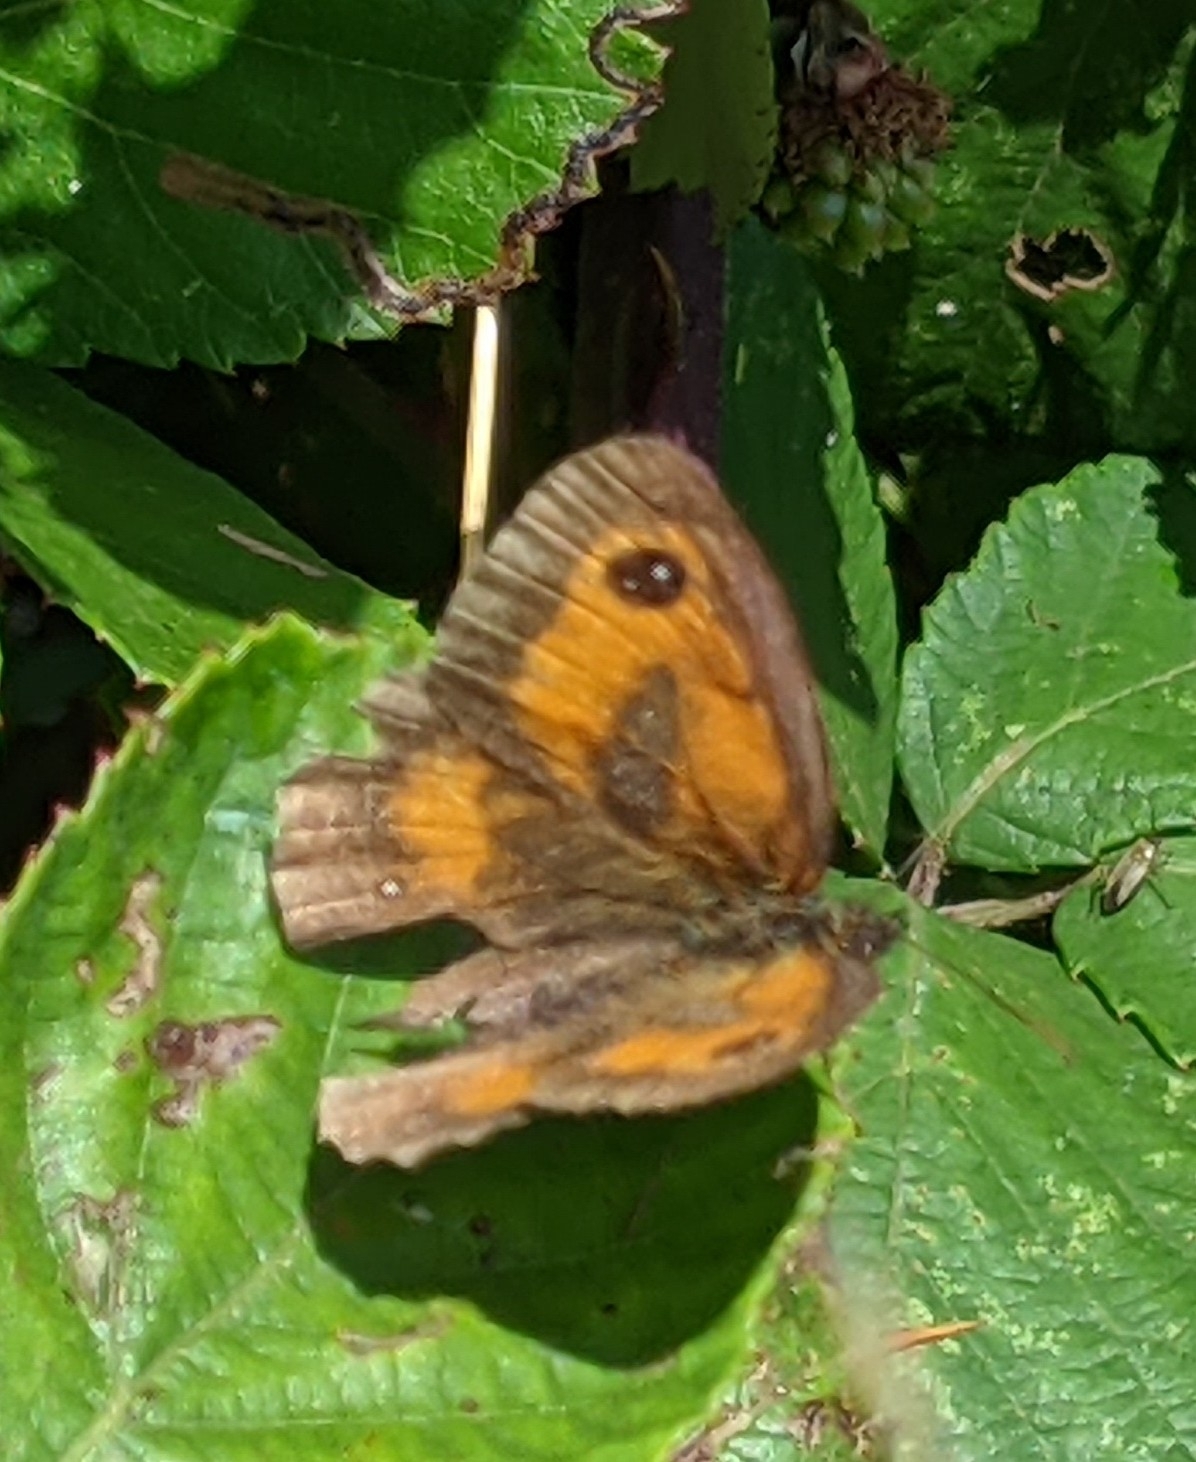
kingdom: Animalia
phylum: Arthropoda
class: Insecta
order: Lepidoptera
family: Nymphalidae
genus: Pyronia
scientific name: Pyronia tithonus
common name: Gatekeeper
